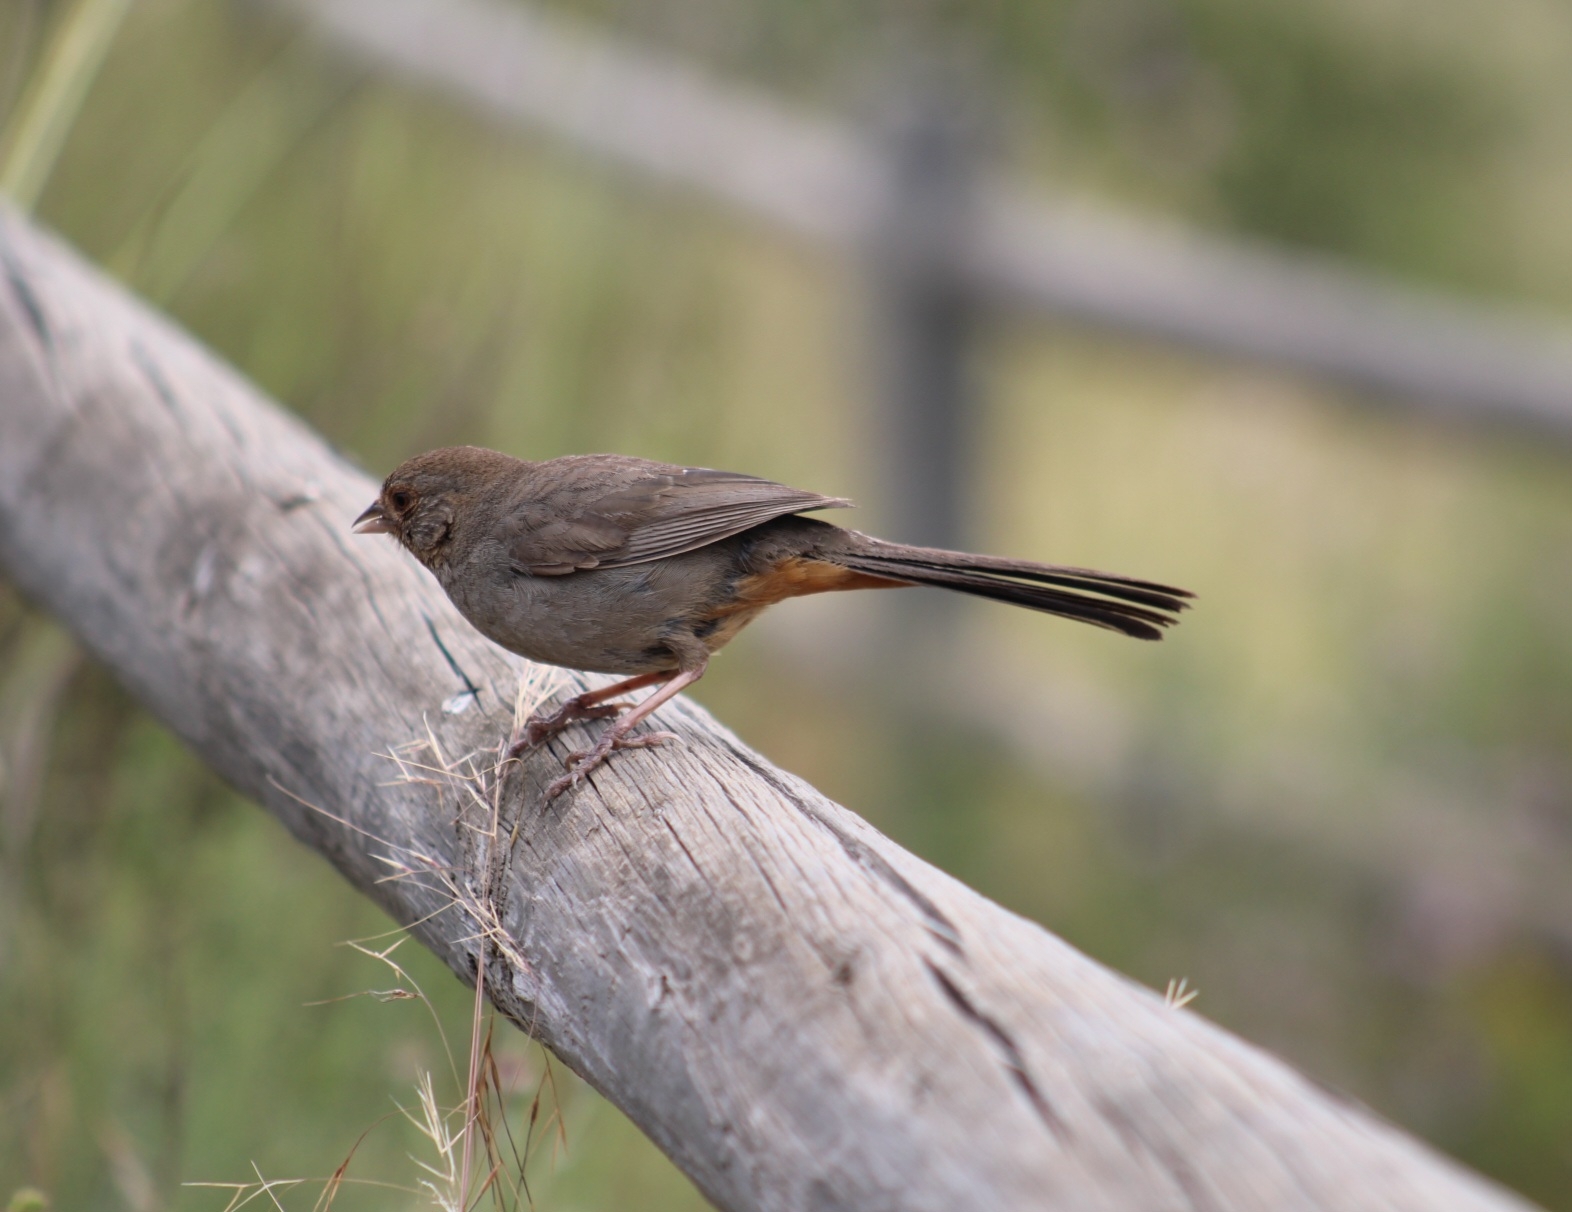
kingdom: Animalia
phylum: Chordata
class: Aves
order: Passeriformes
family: Passerellidae
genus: Melozone
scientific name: Melozone crissalis
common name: California towhee
